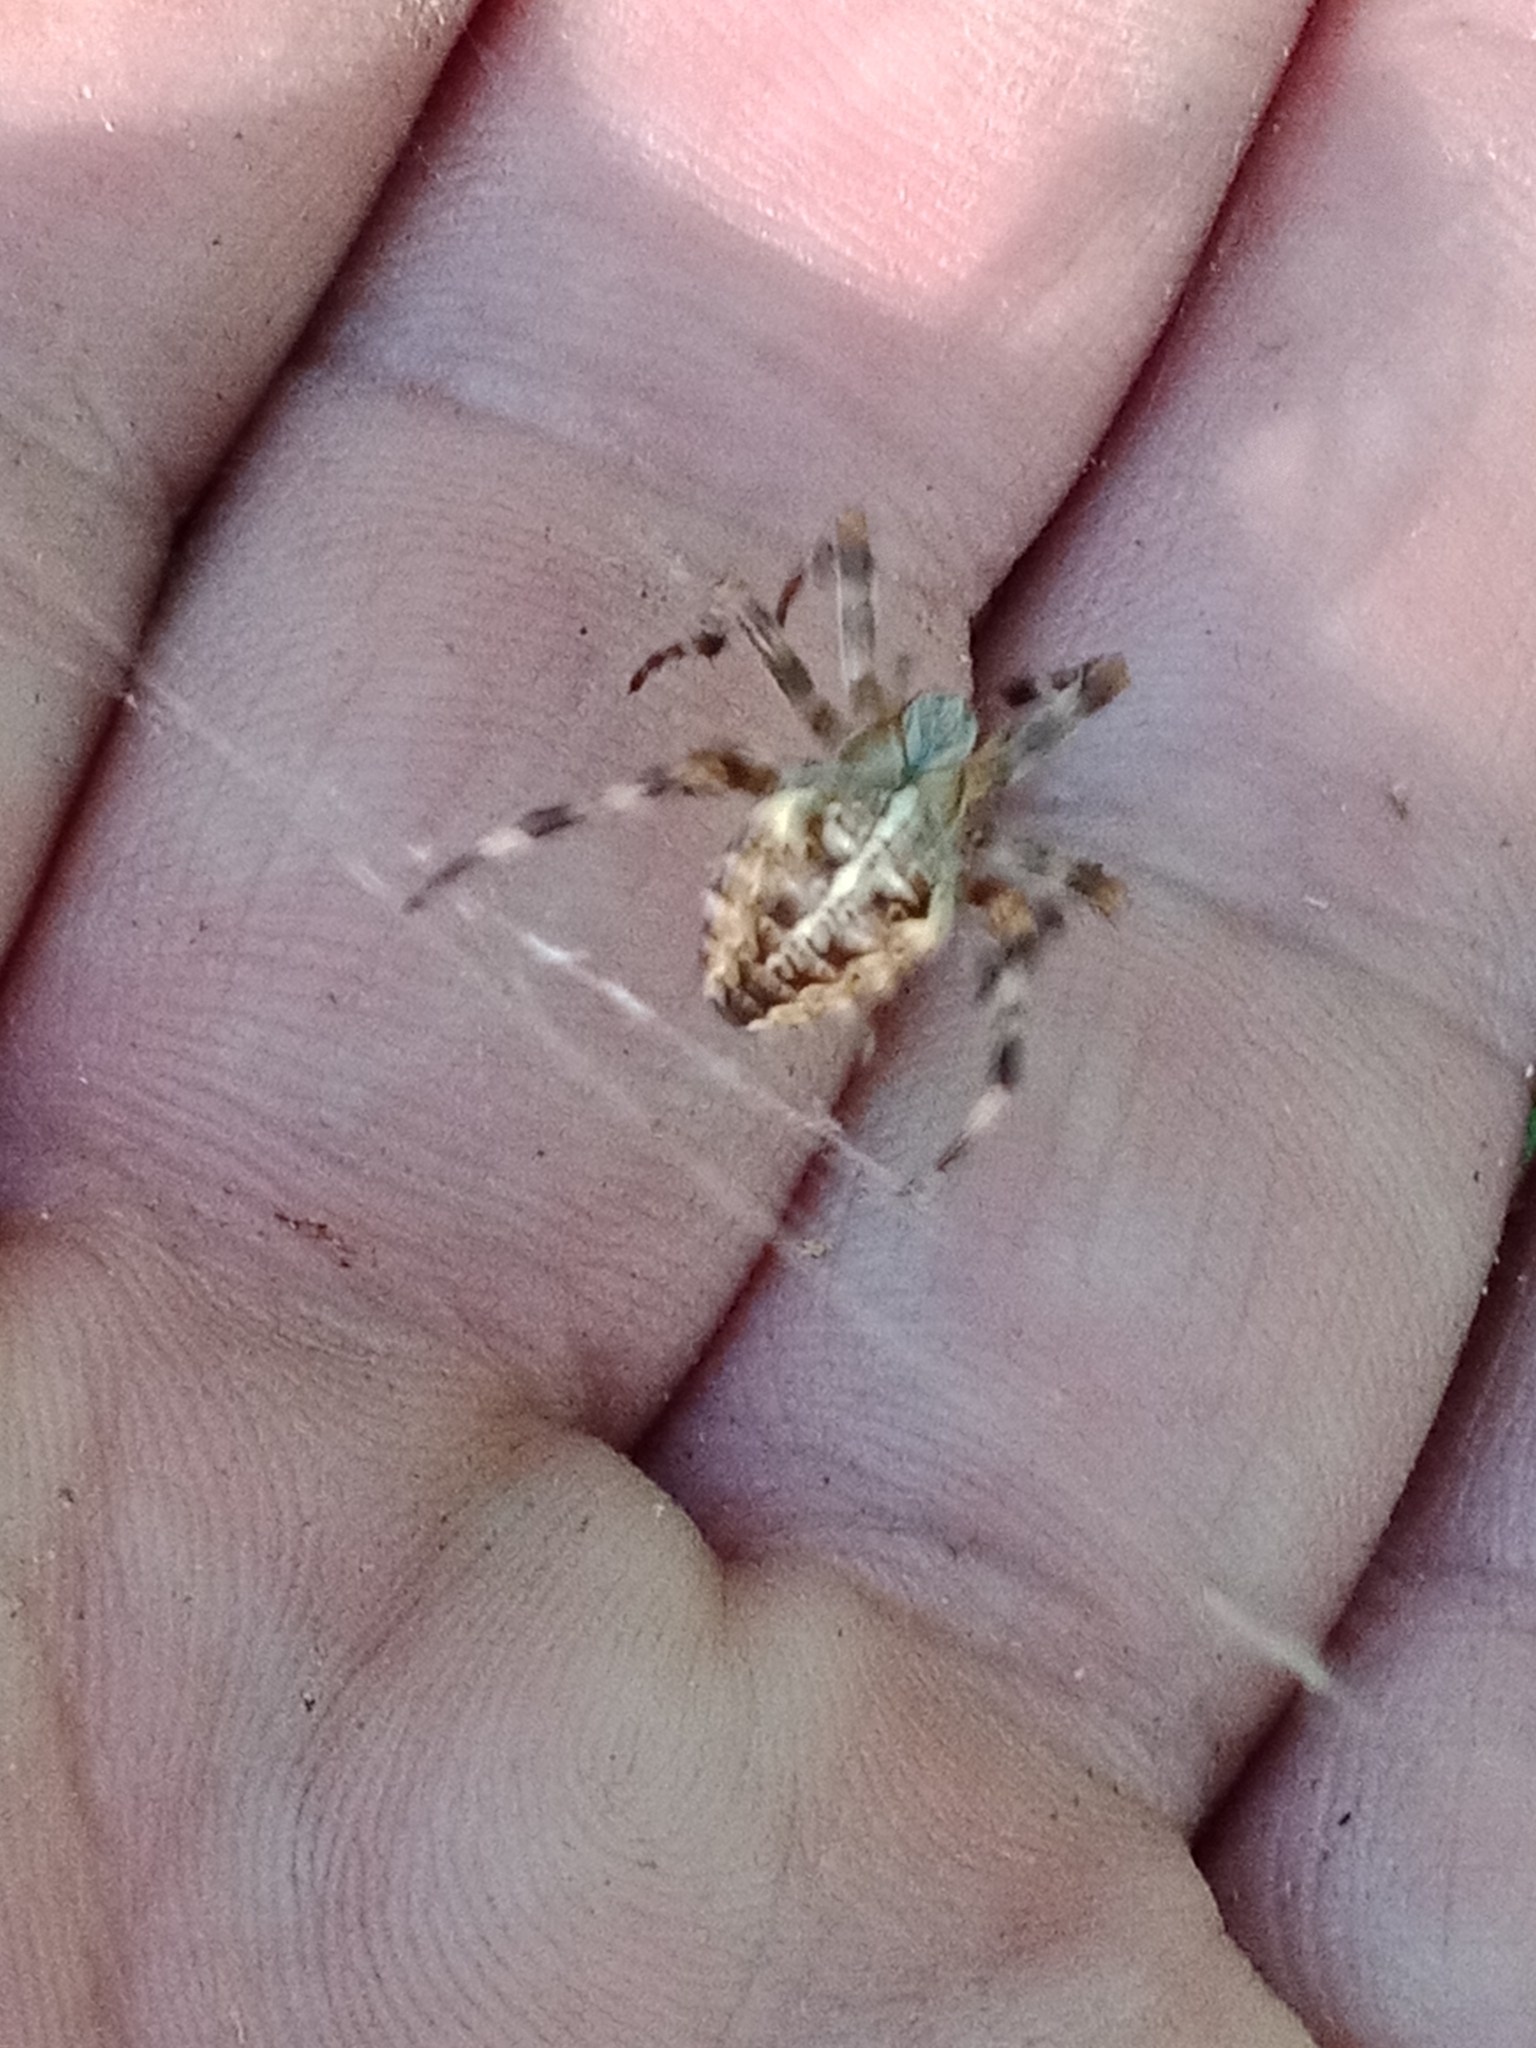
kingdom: Animalia
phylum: Arthropoda
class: Arachnida
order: Araneae
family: Araneidae
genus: Araneus
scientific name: Araneus diadematus
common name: Cross orbweaver
